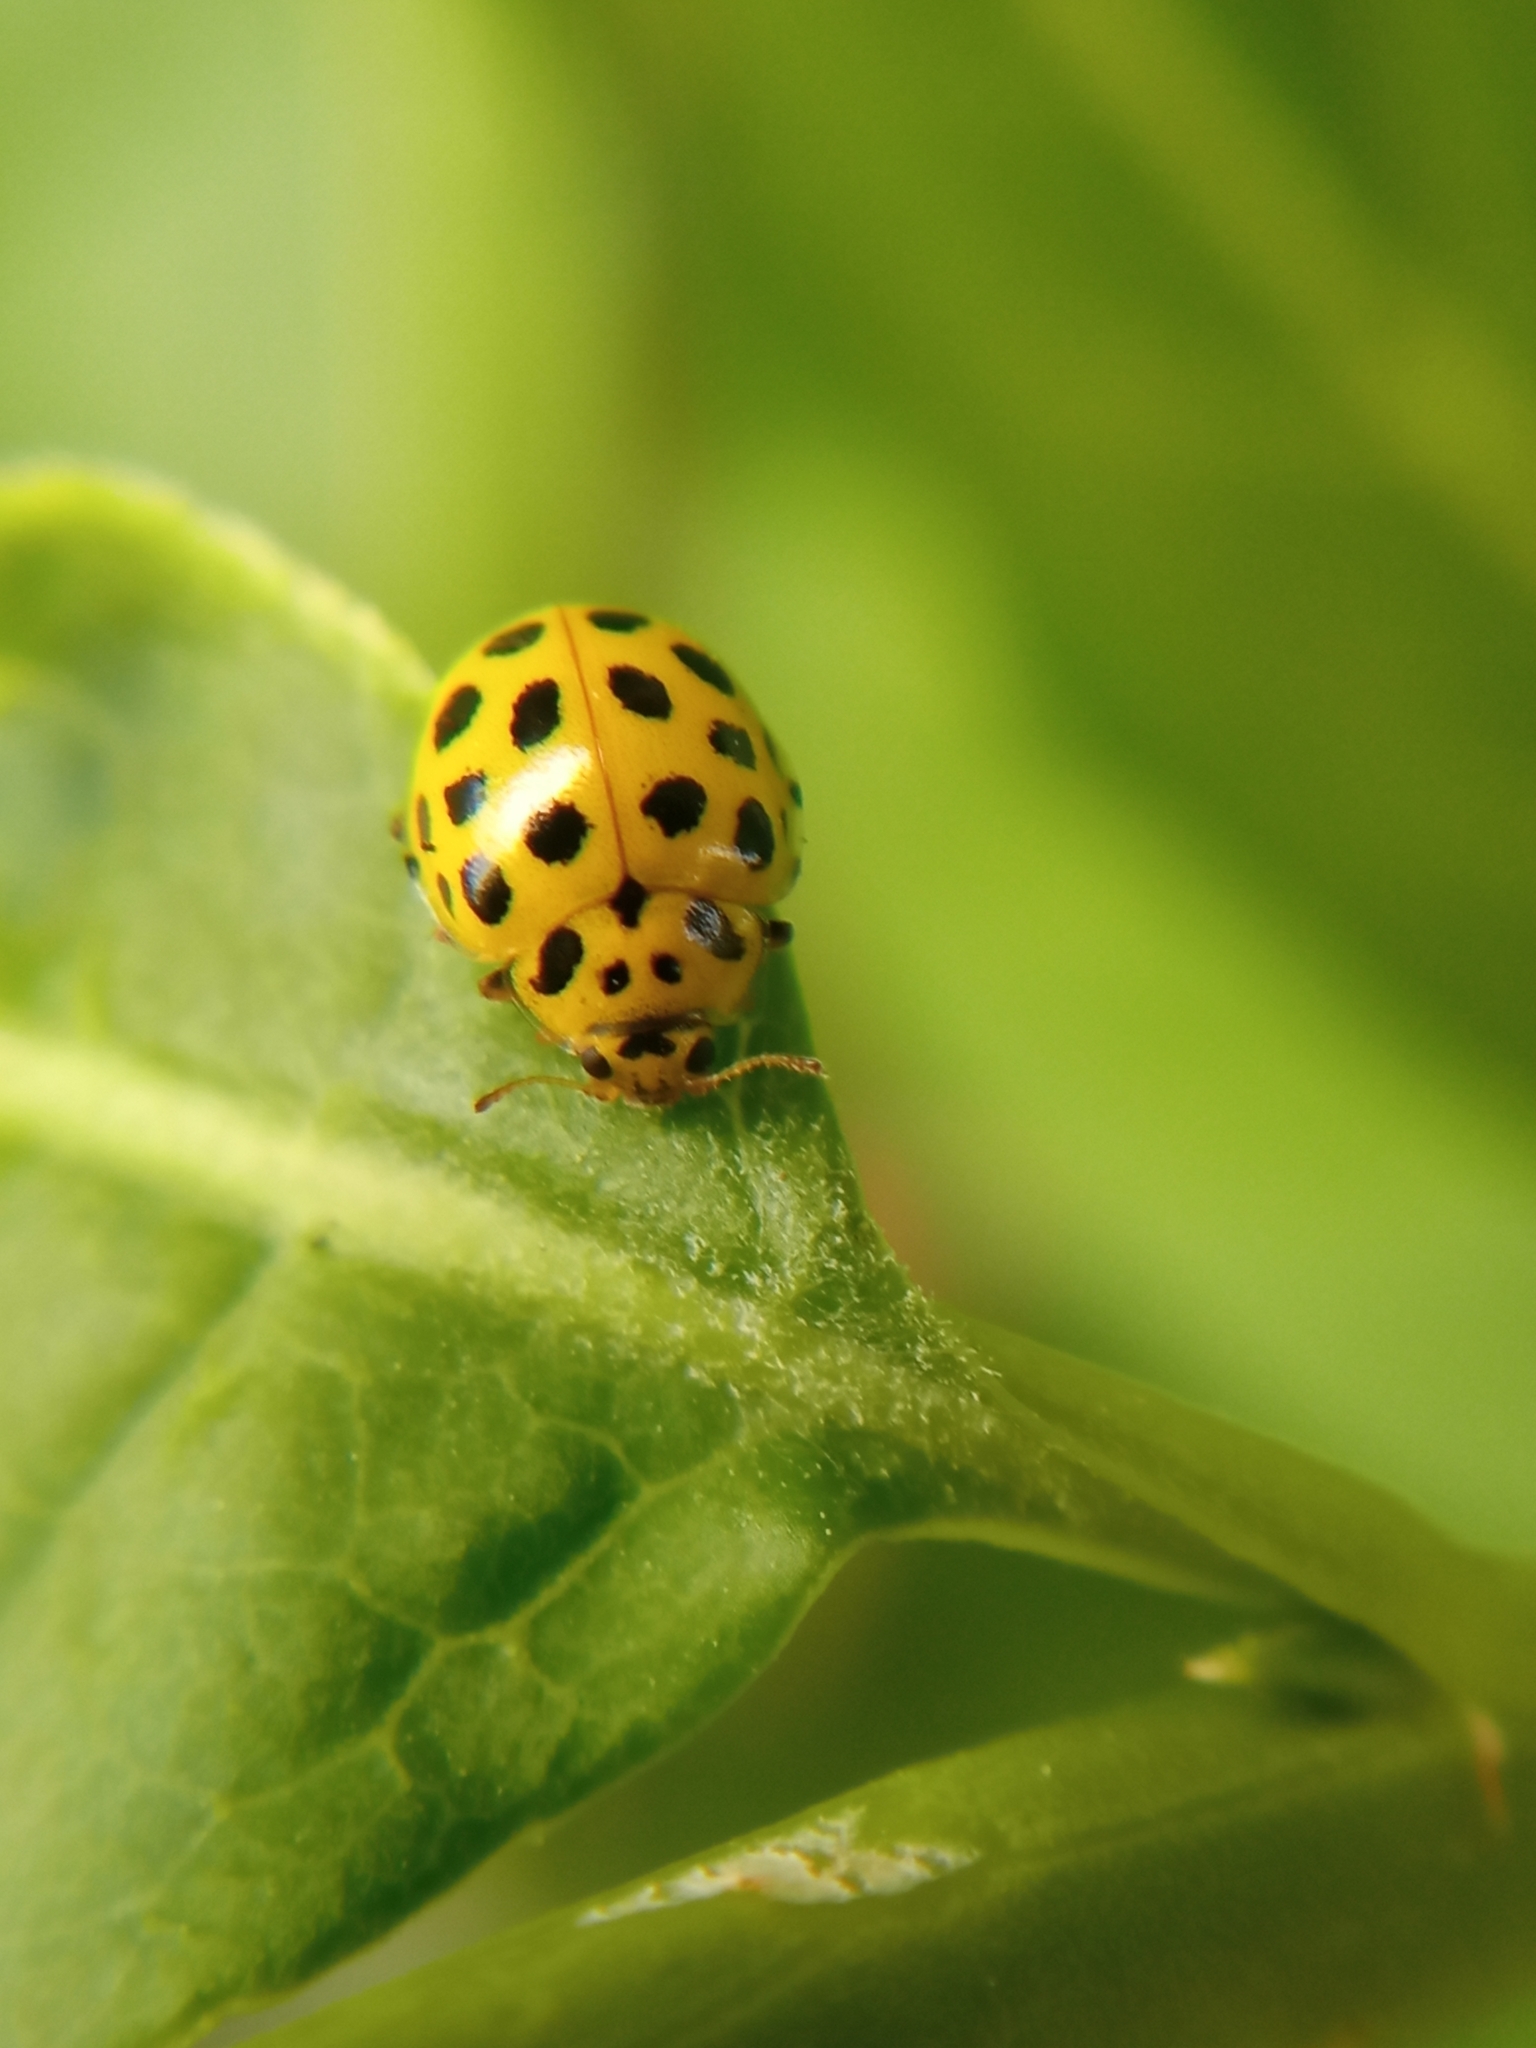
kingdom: Animalia
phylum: Arthropoda
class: Insecta
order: Coleoptera
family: Coccinellidae
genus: Psyllobora
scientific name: Psyllobora vigintiduopunctata
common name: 22-spot ladybird
